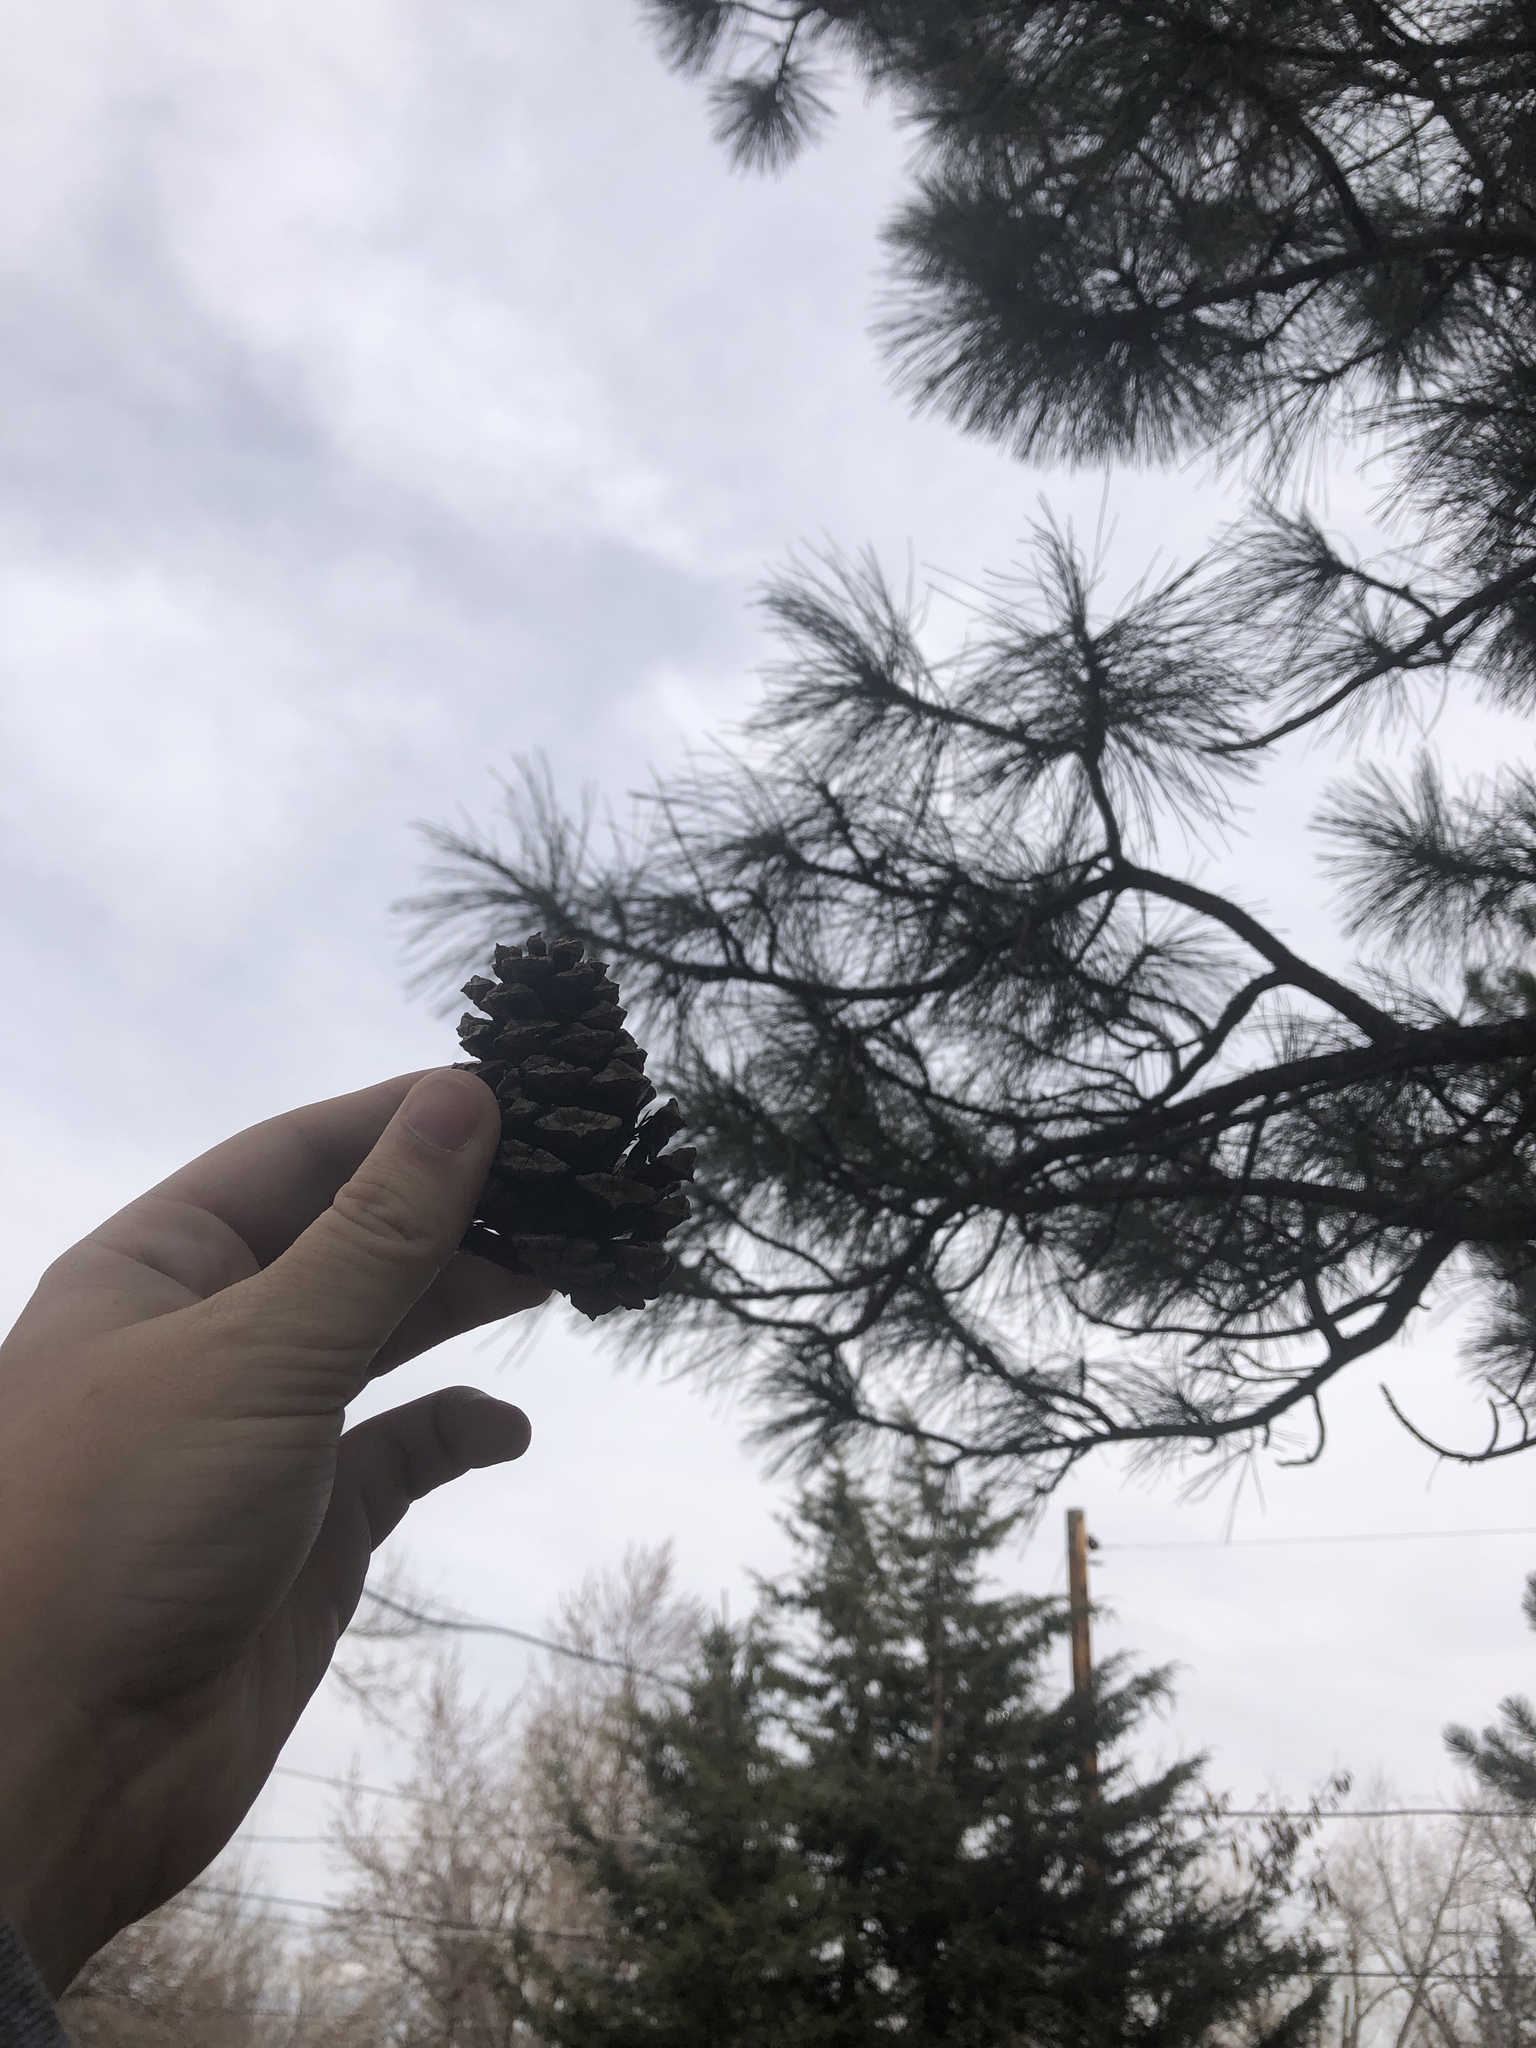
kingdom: Plantae
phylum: Tracheophyta
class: Pinopsida
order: Pinales
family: Pinaceae
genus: Pinus
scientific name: Pinus ponderosa
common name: Western yellow-pine
